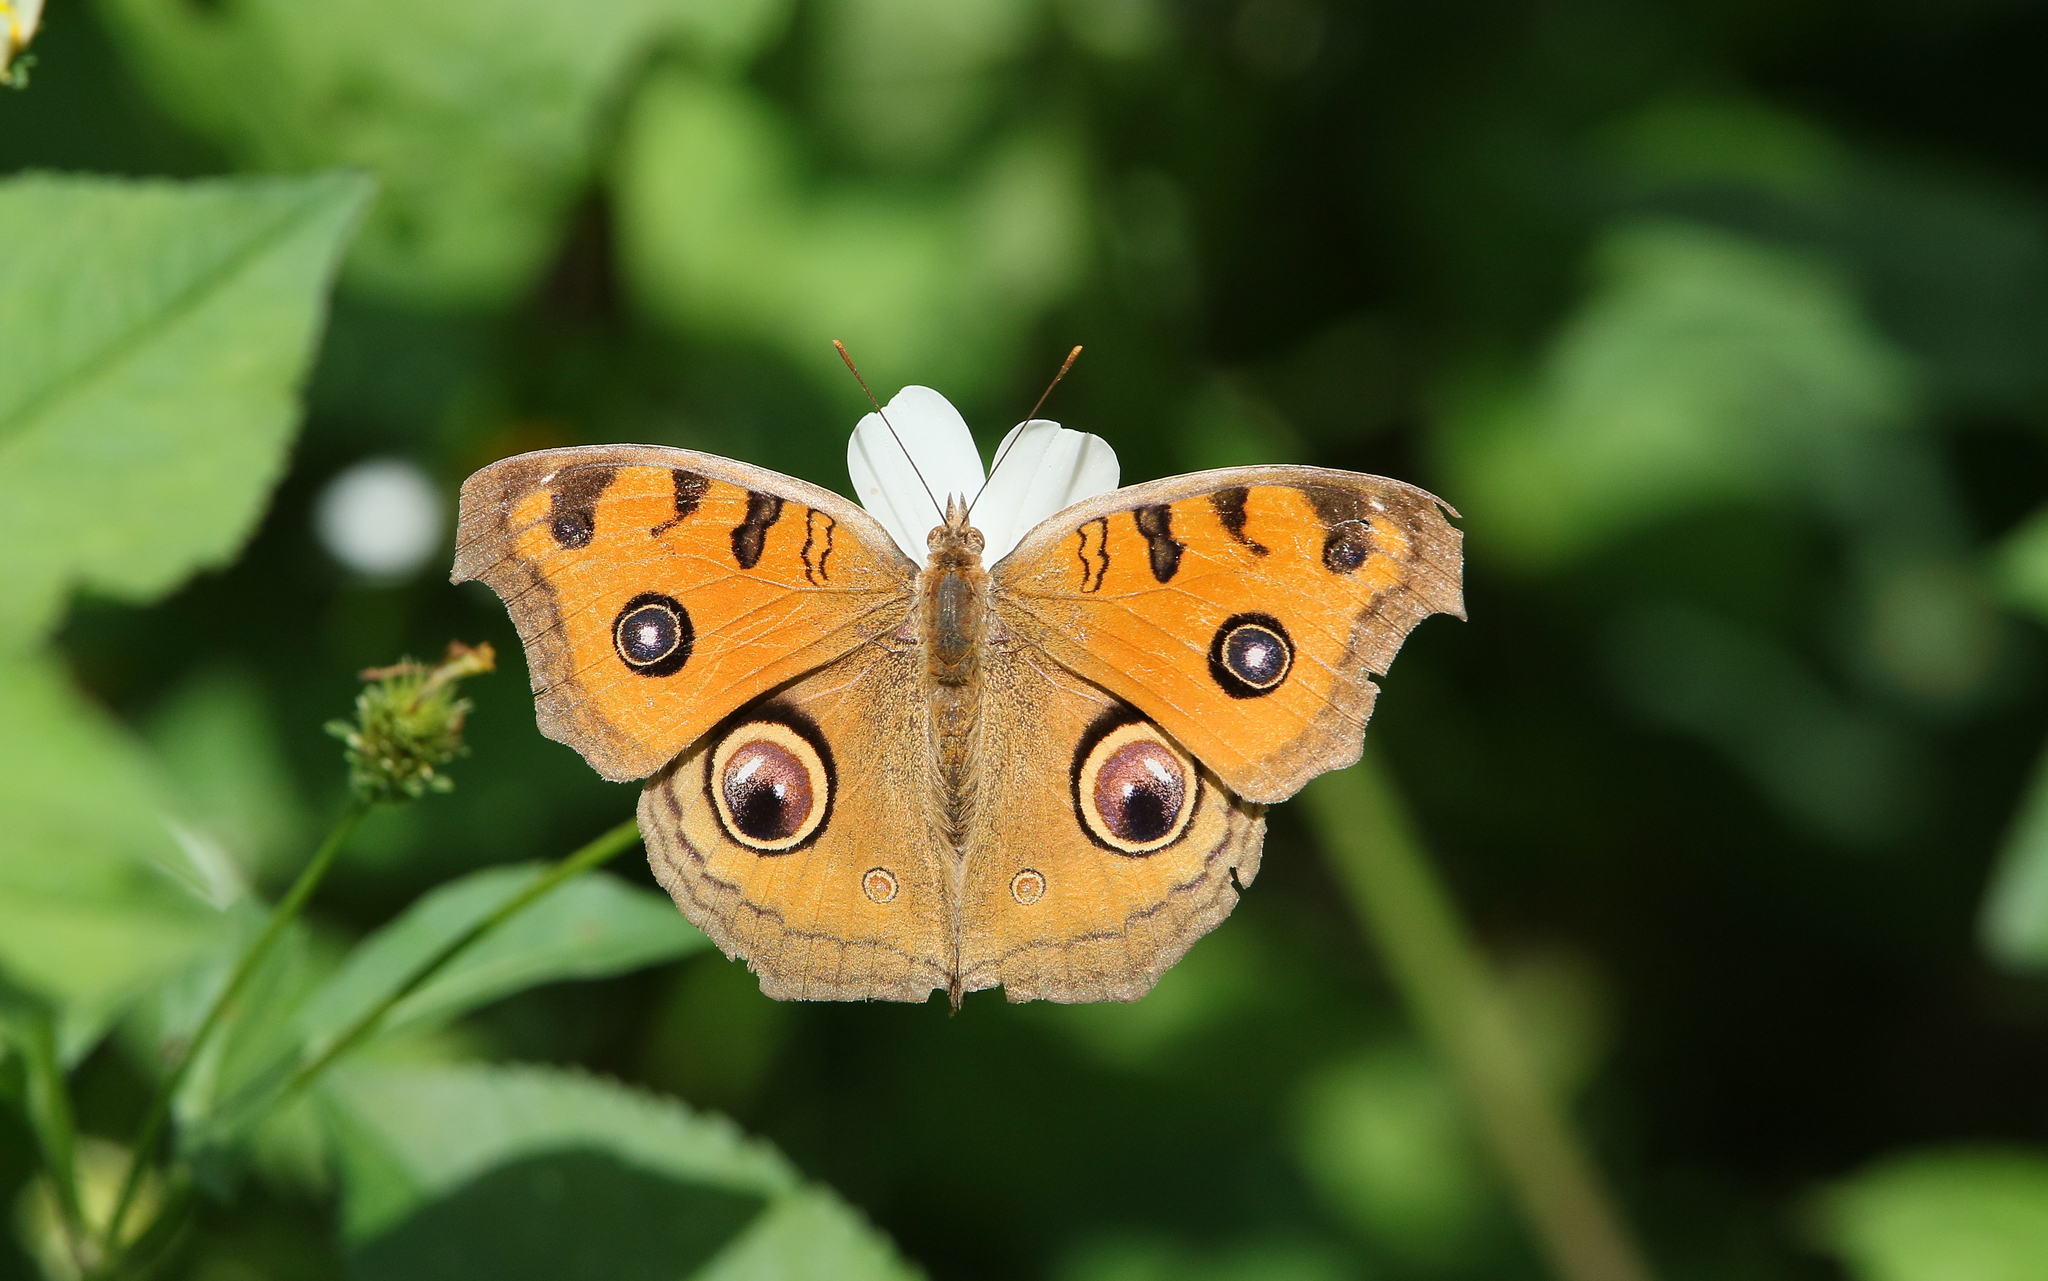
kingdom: Animalia
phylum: Arthropoda
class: Insecta
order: Lepidoptera
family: Nymphalidae
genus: Junonia
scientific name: Junonia almana
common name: Peacock pansy
